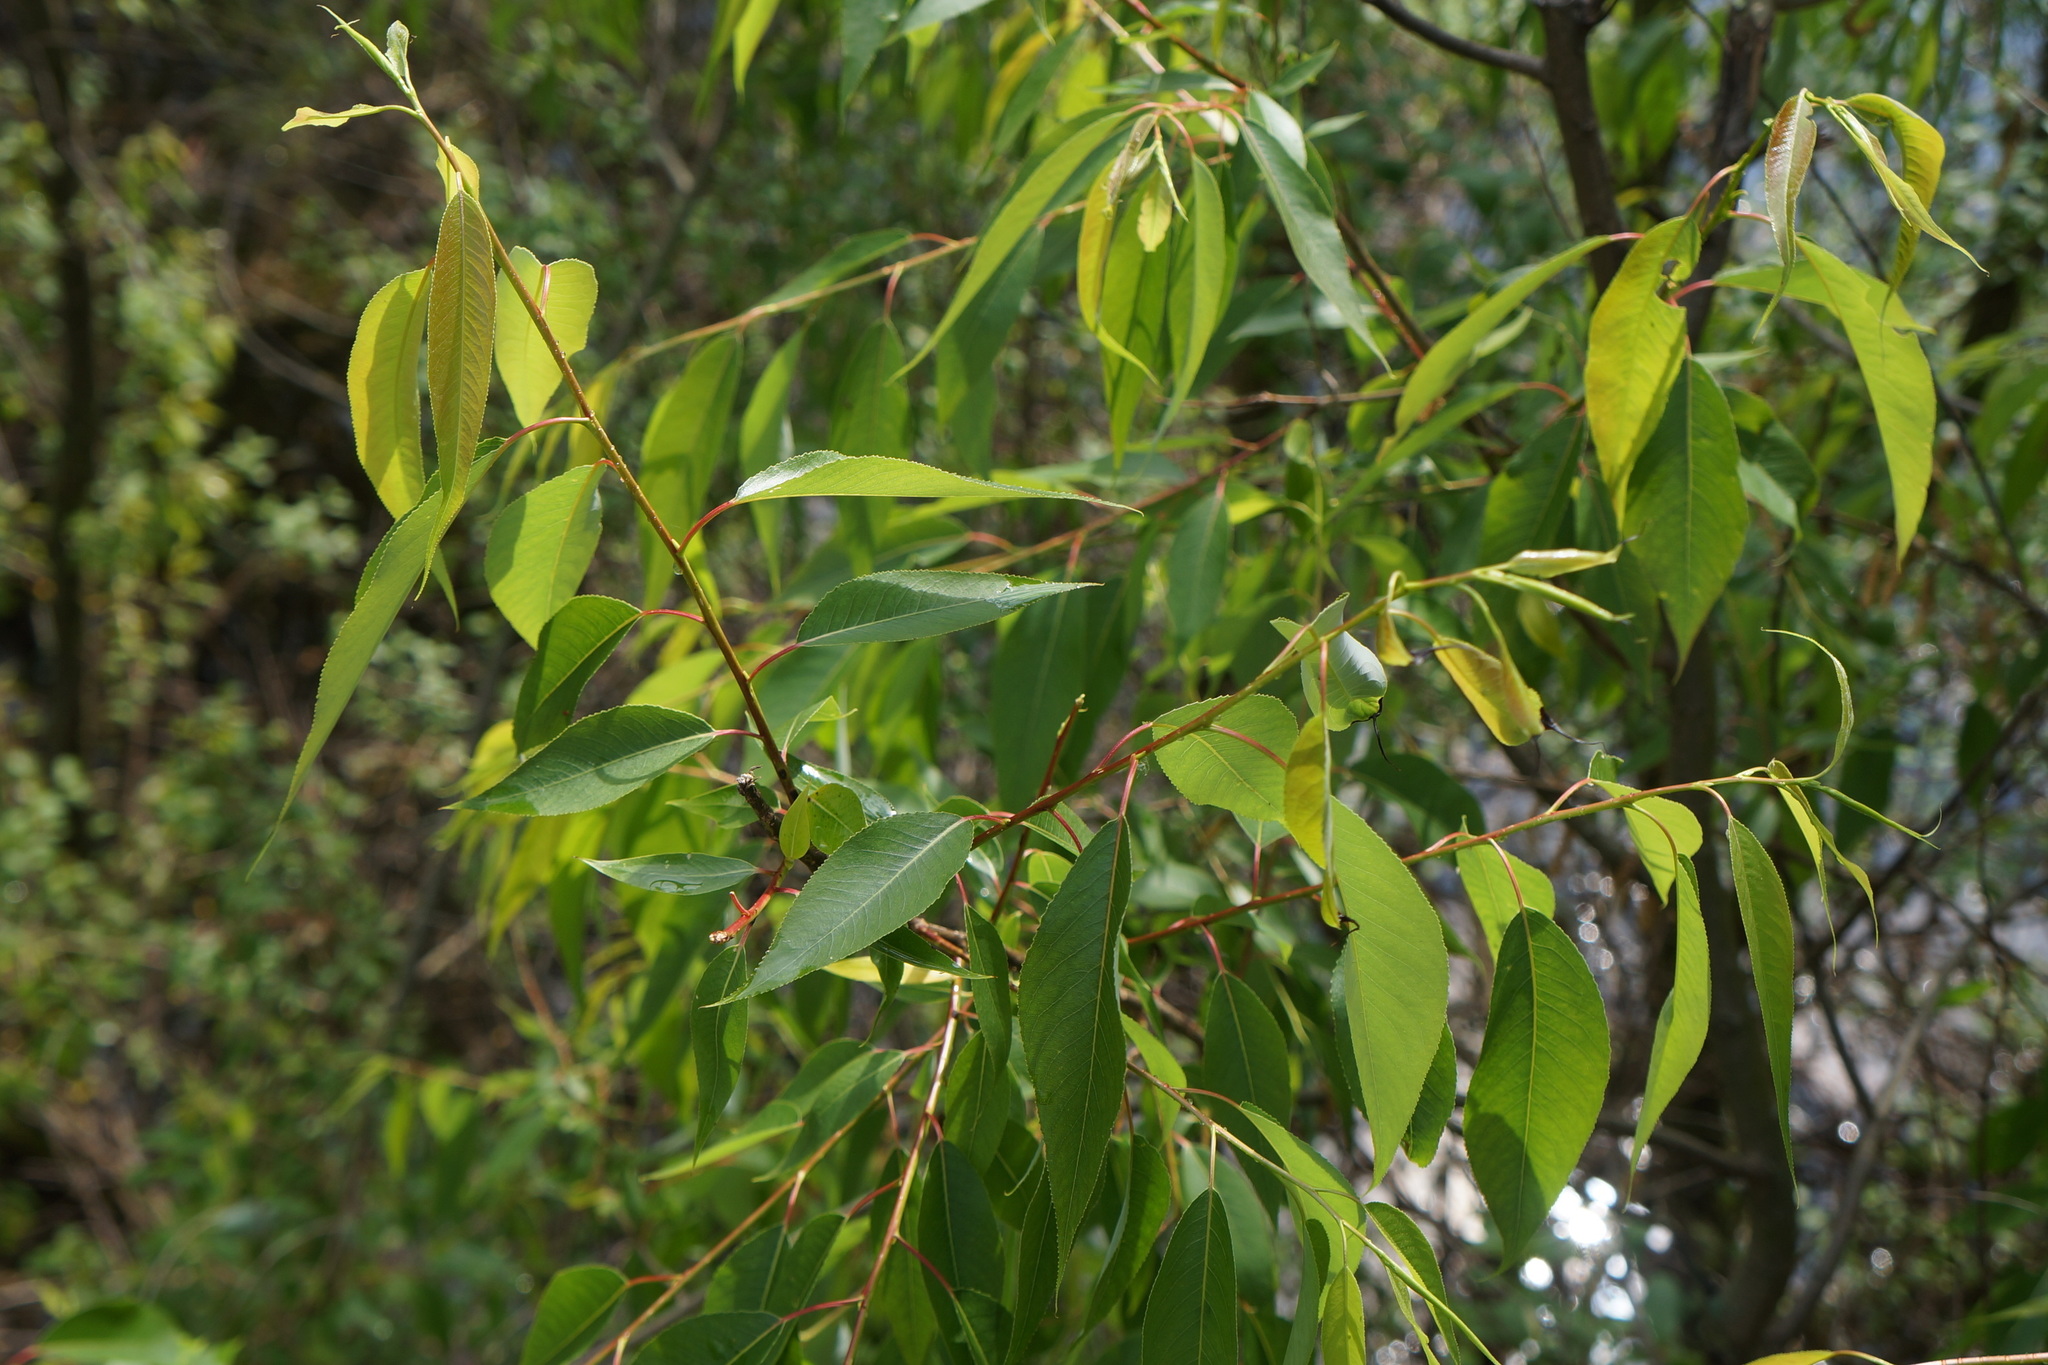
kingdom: Plantae
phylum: Tracheophyta
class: Magnoliopsida
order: Malpighiales
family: Salicaceae
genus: Salix
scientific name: Salix amygdaloides
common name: Peach leaf willow
